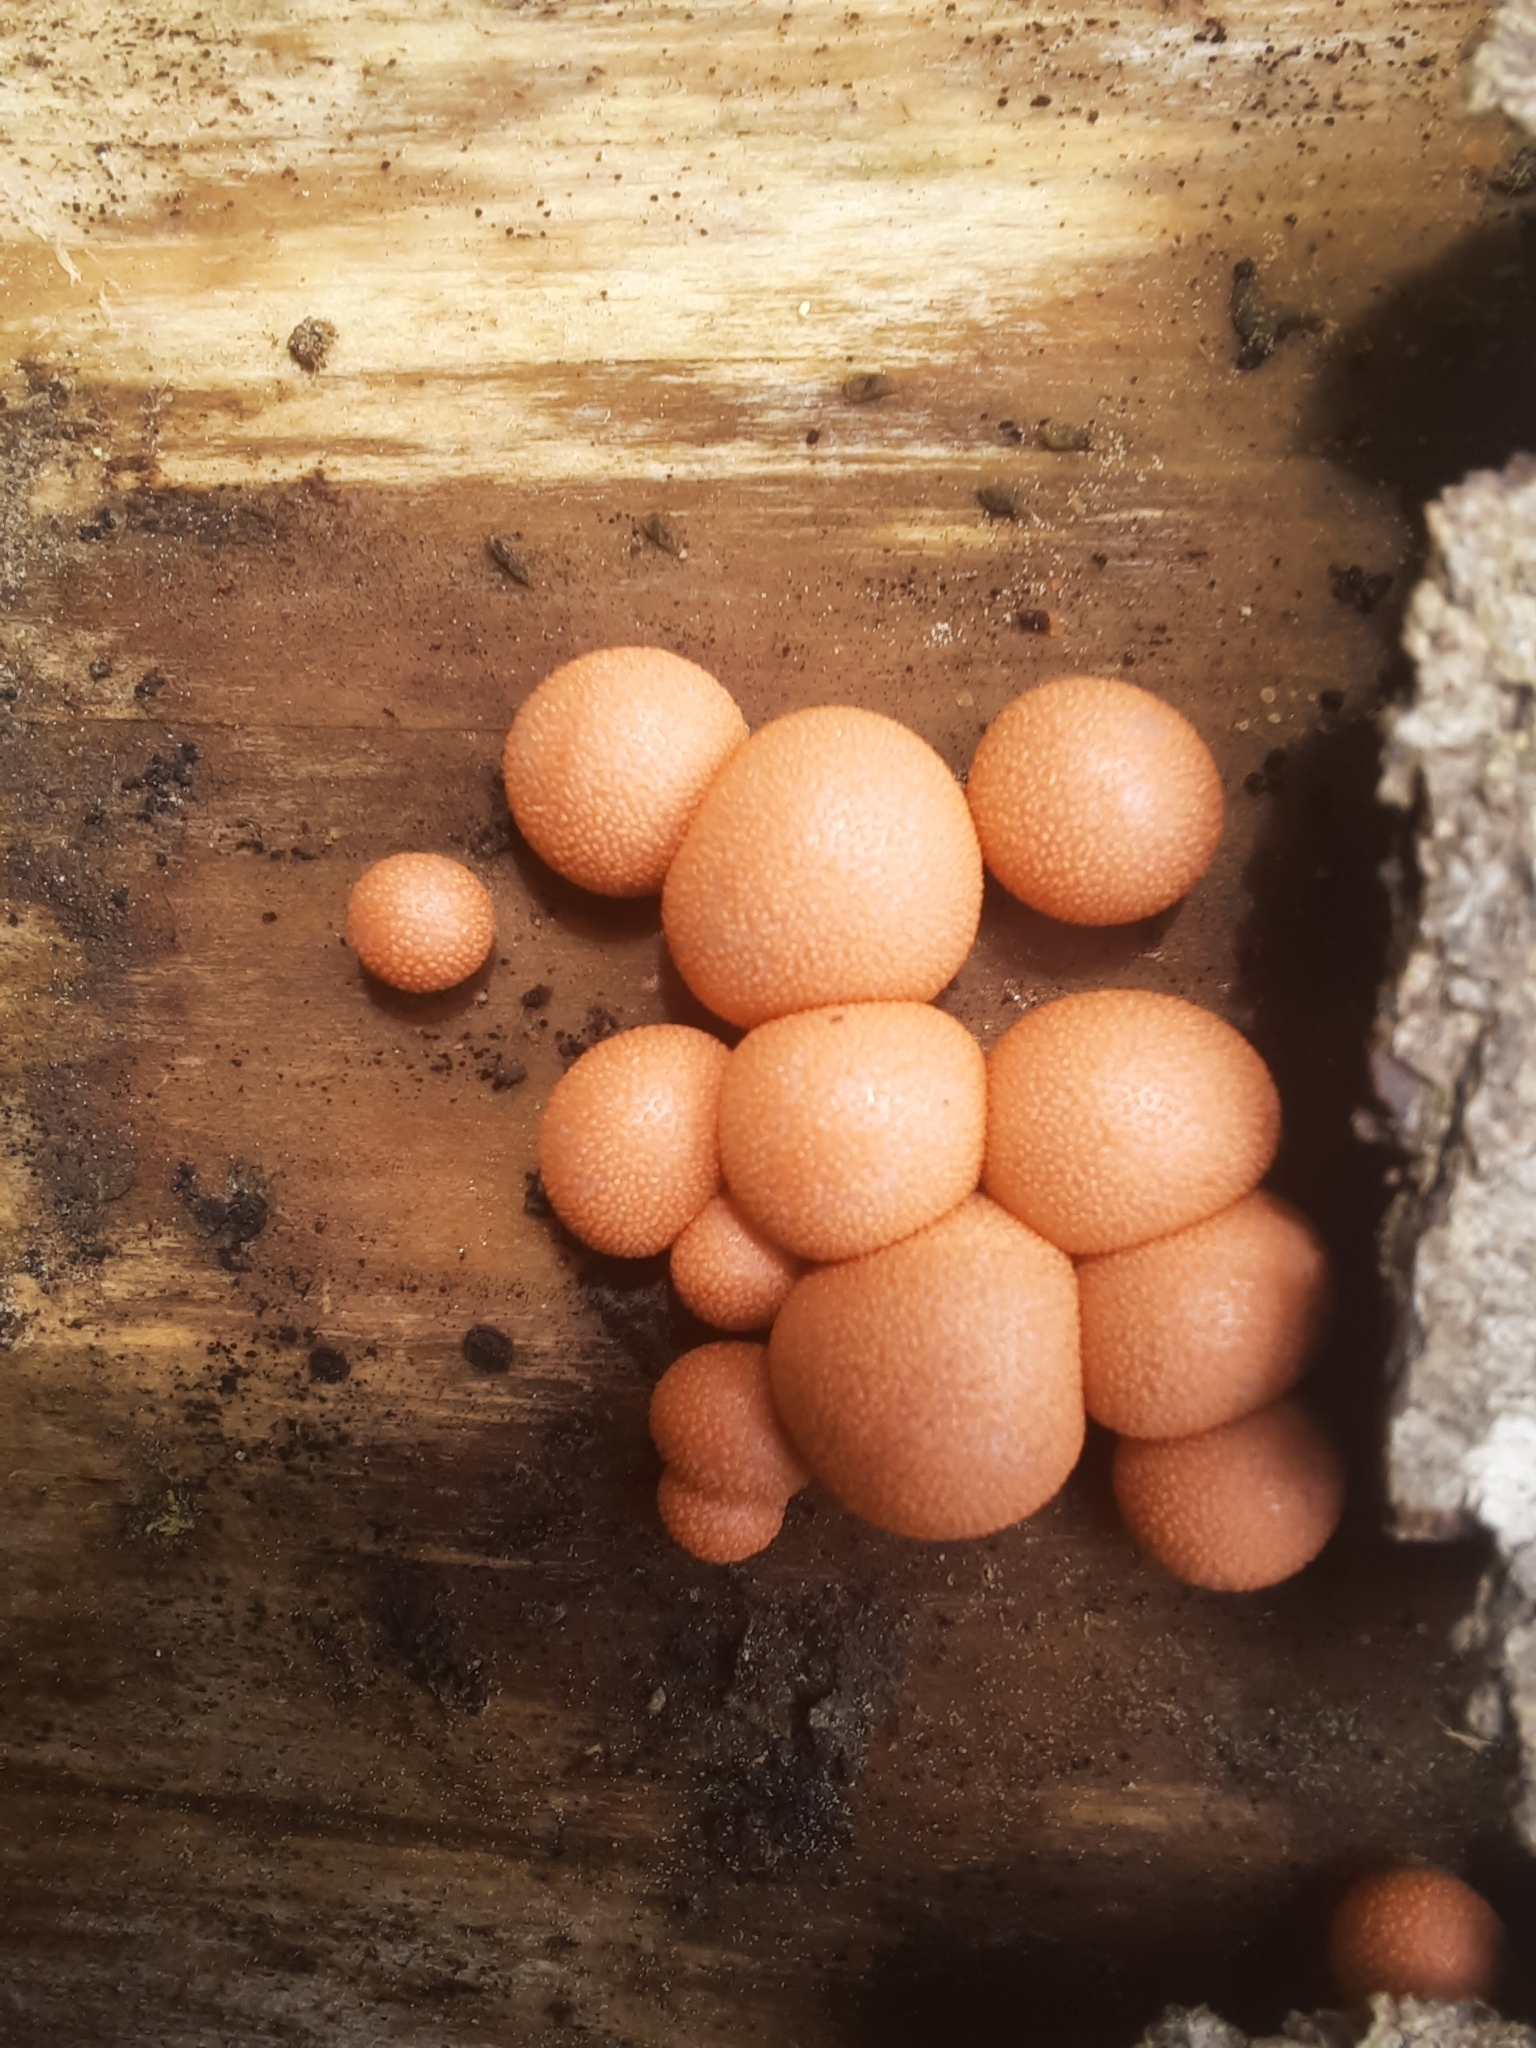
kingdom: Protozoa
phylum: Mycetozoa
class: Myxomycetes
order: Cribrariales
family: Tubiferaceae
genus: Lycogala
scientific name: Lycogala epidendrum
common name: Wolf's milk
